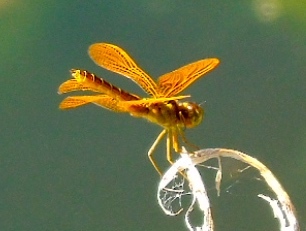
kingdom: Animalia
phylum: Arthropoda
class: Insecta
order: Odonata
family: Libellulidae
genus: Perithemis
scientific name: Perithemis
